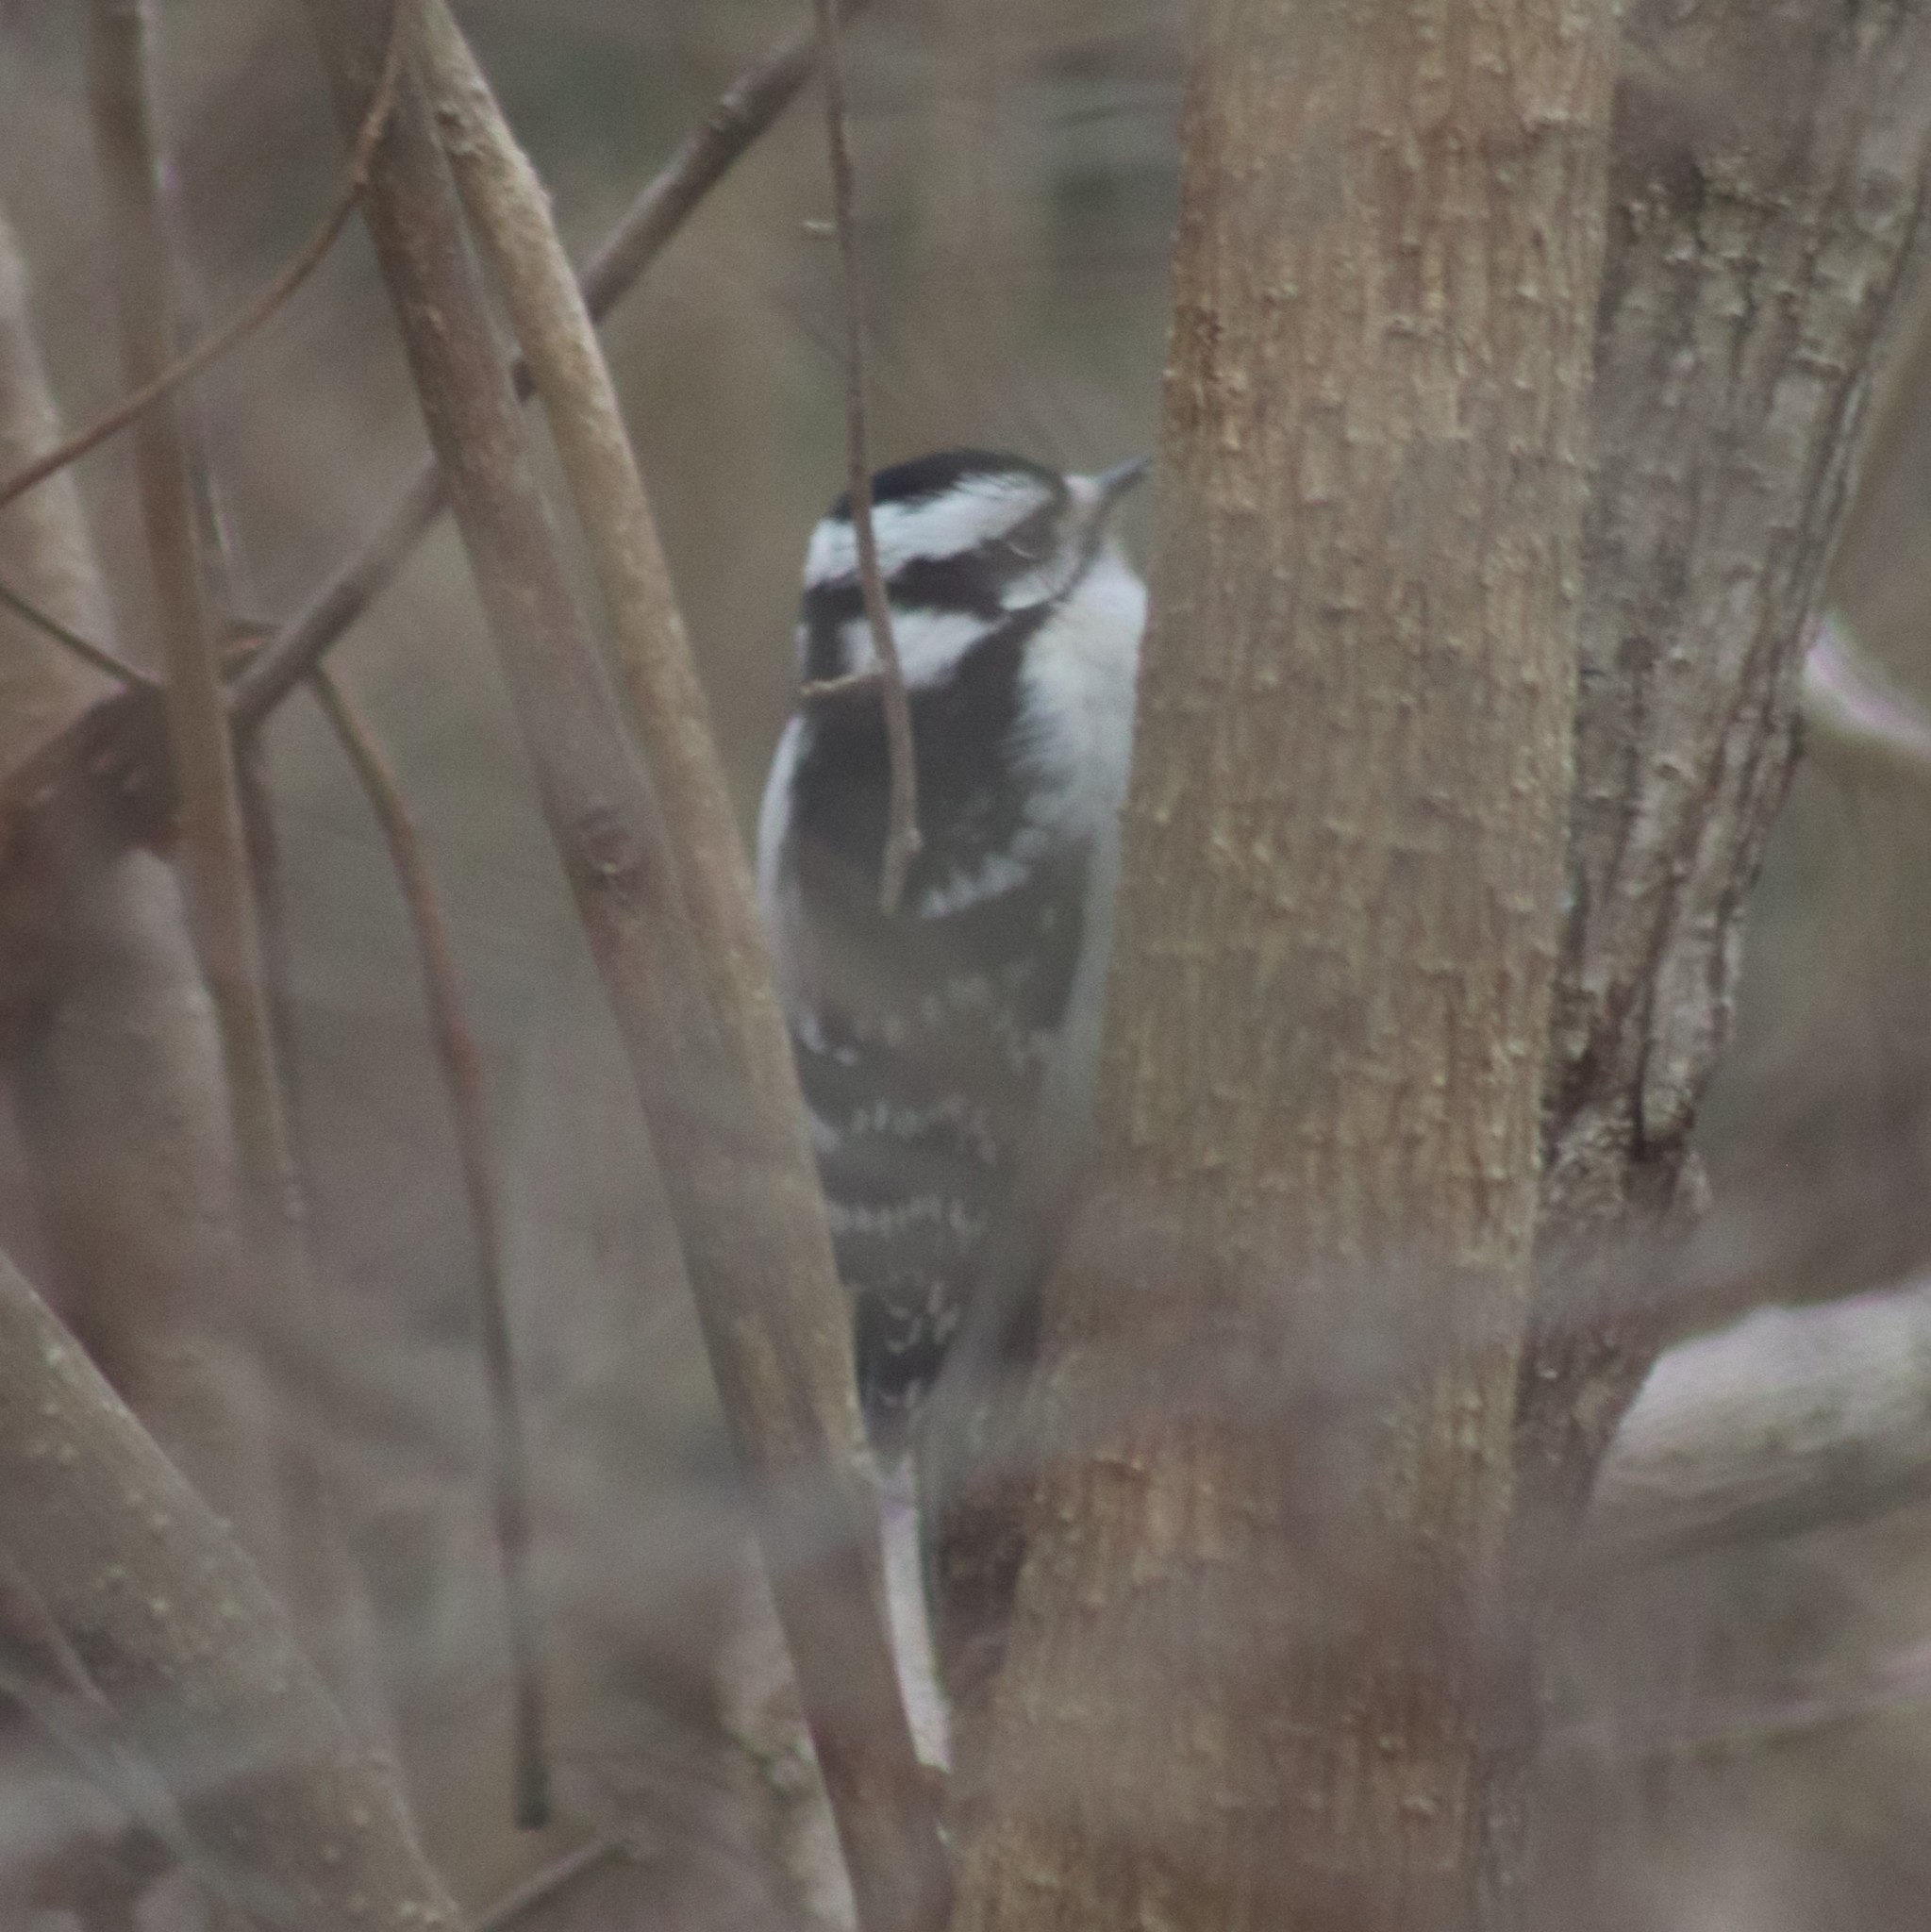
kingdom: Animalia
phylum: Chordata
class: Aves
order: Piciformes
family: Picidae
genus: Dryobates
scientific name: Dryobates pubescens
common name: Downy woodpecker
